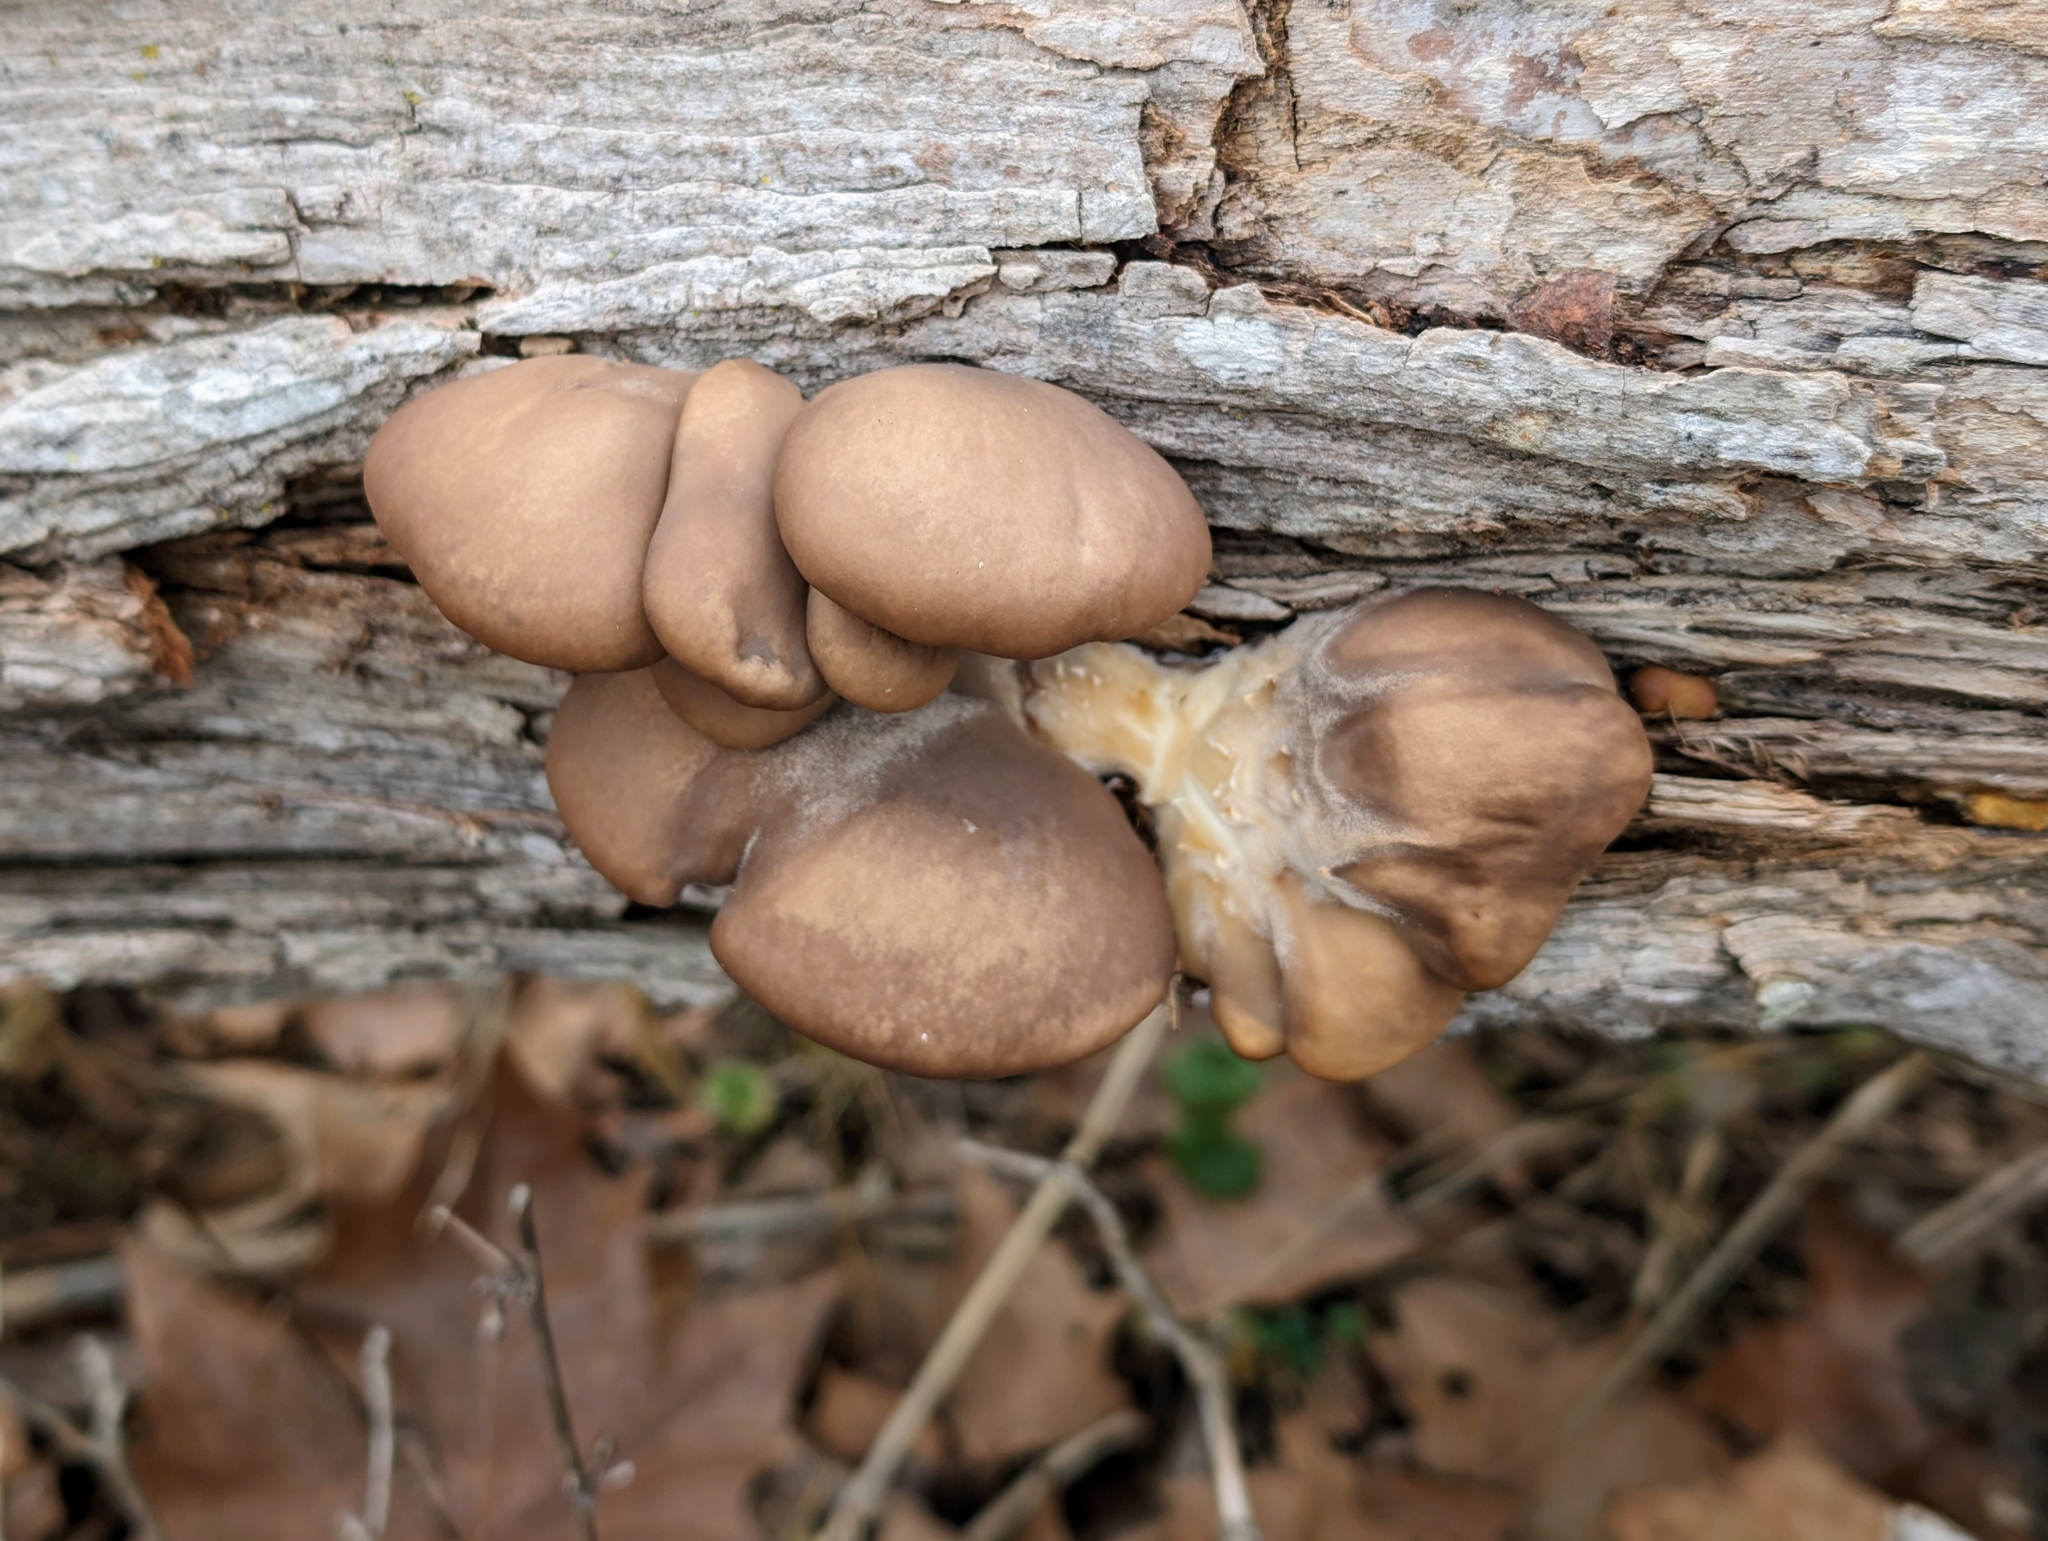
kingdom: Fungi
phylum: Basidiomycota
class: Agaricomycetes
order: Agaricales
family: Pleurotaceae
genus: Pleurotus
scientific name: Pleurotus ostreatus
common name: Oyster mushroom
